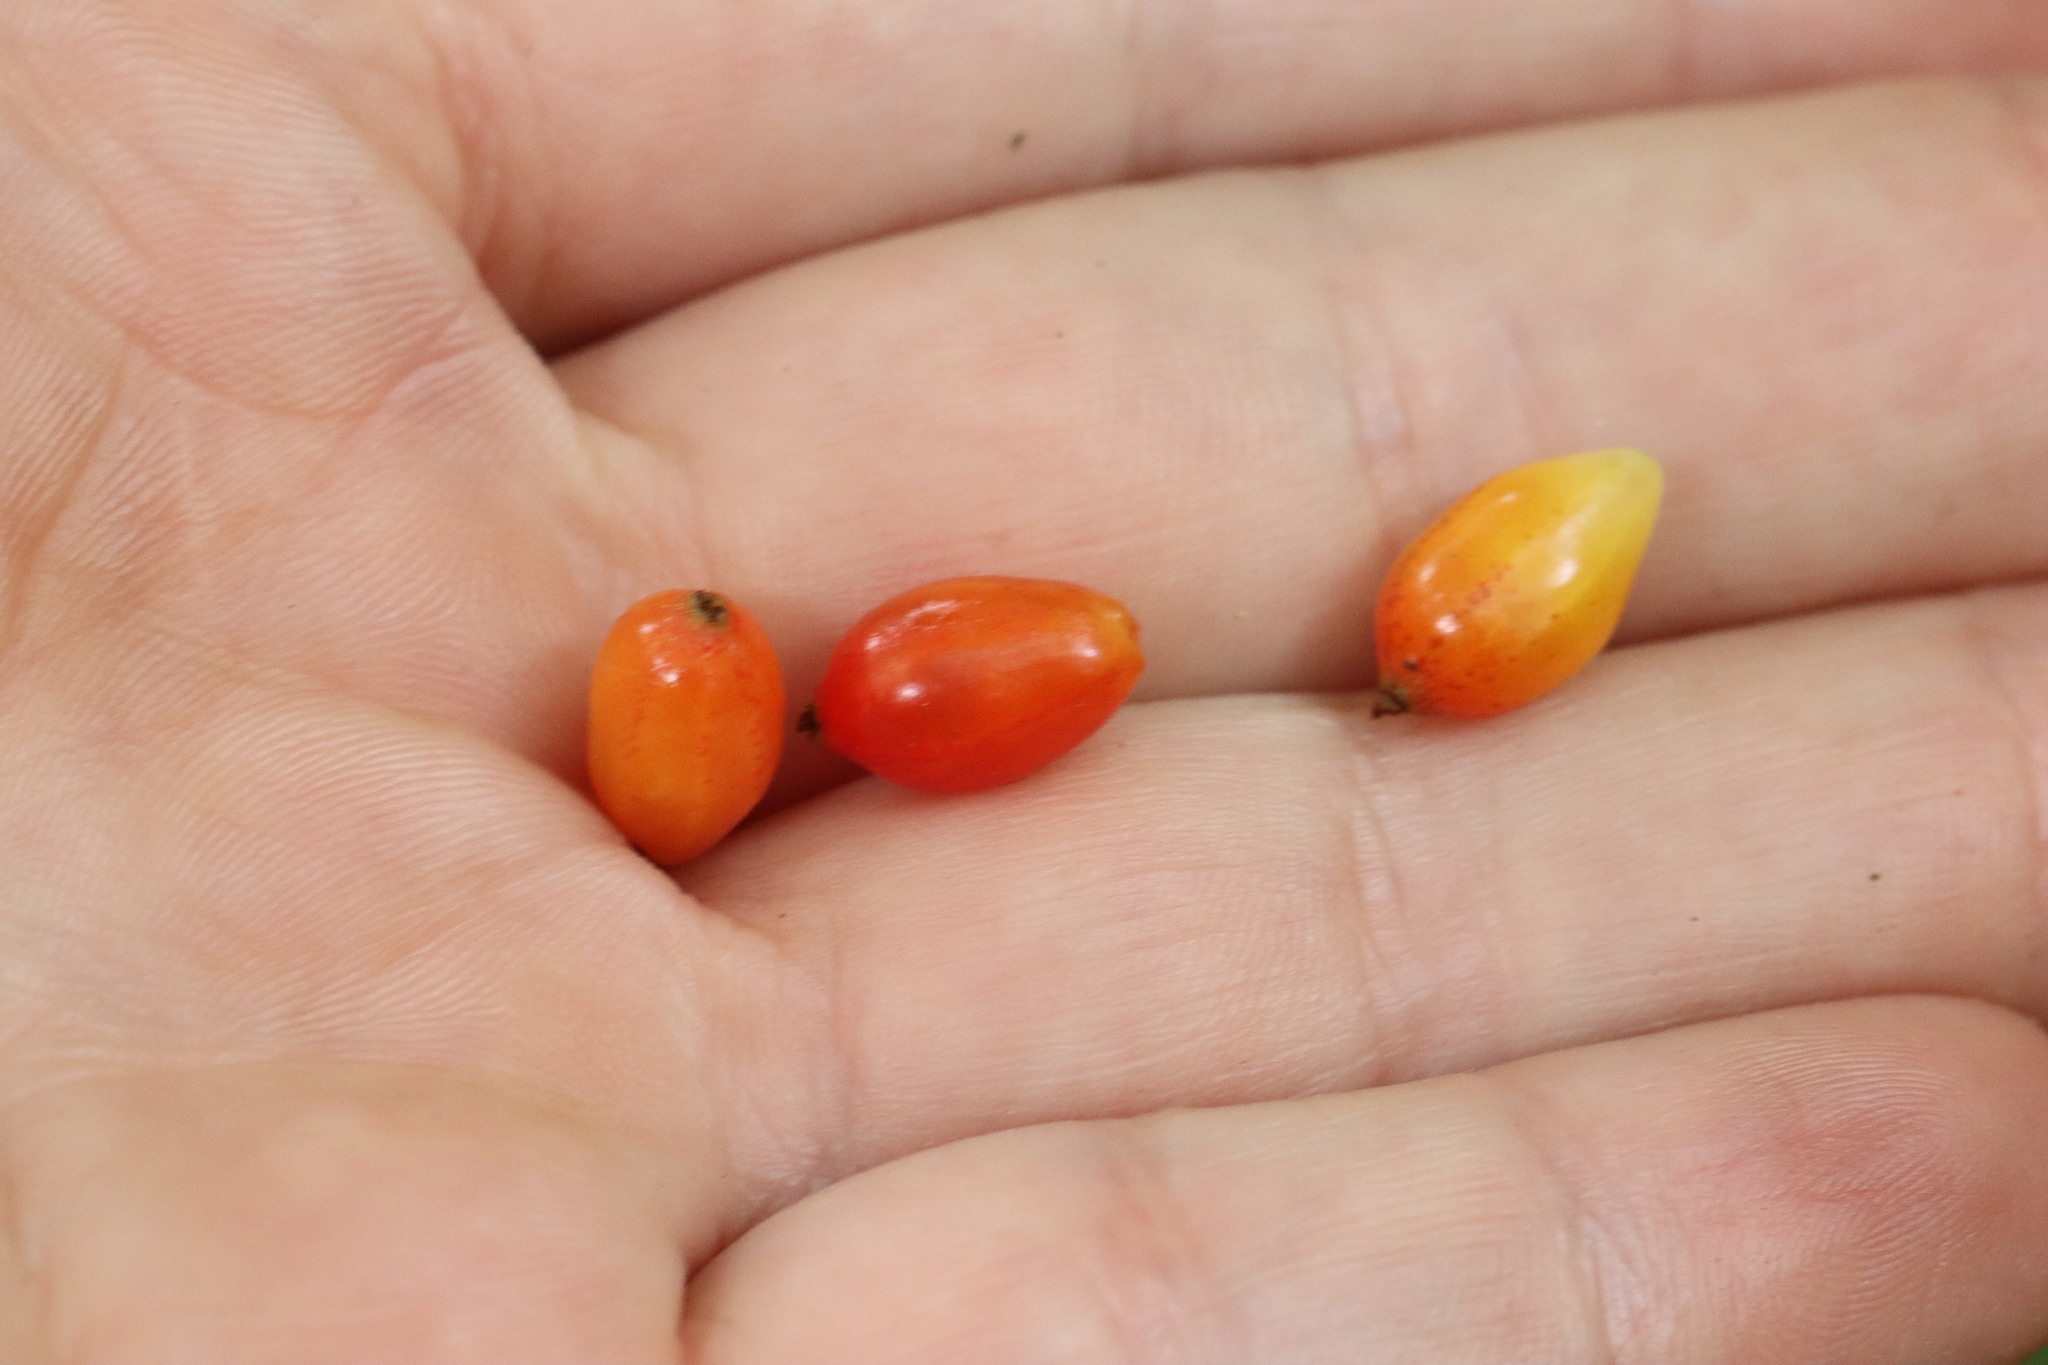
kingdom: Plantae
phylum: Tracheophyta
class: Magnoliopsida
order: Saxifragales
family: Grossulariaceae
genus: Ribes
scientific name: Ribes maximoviczianum
